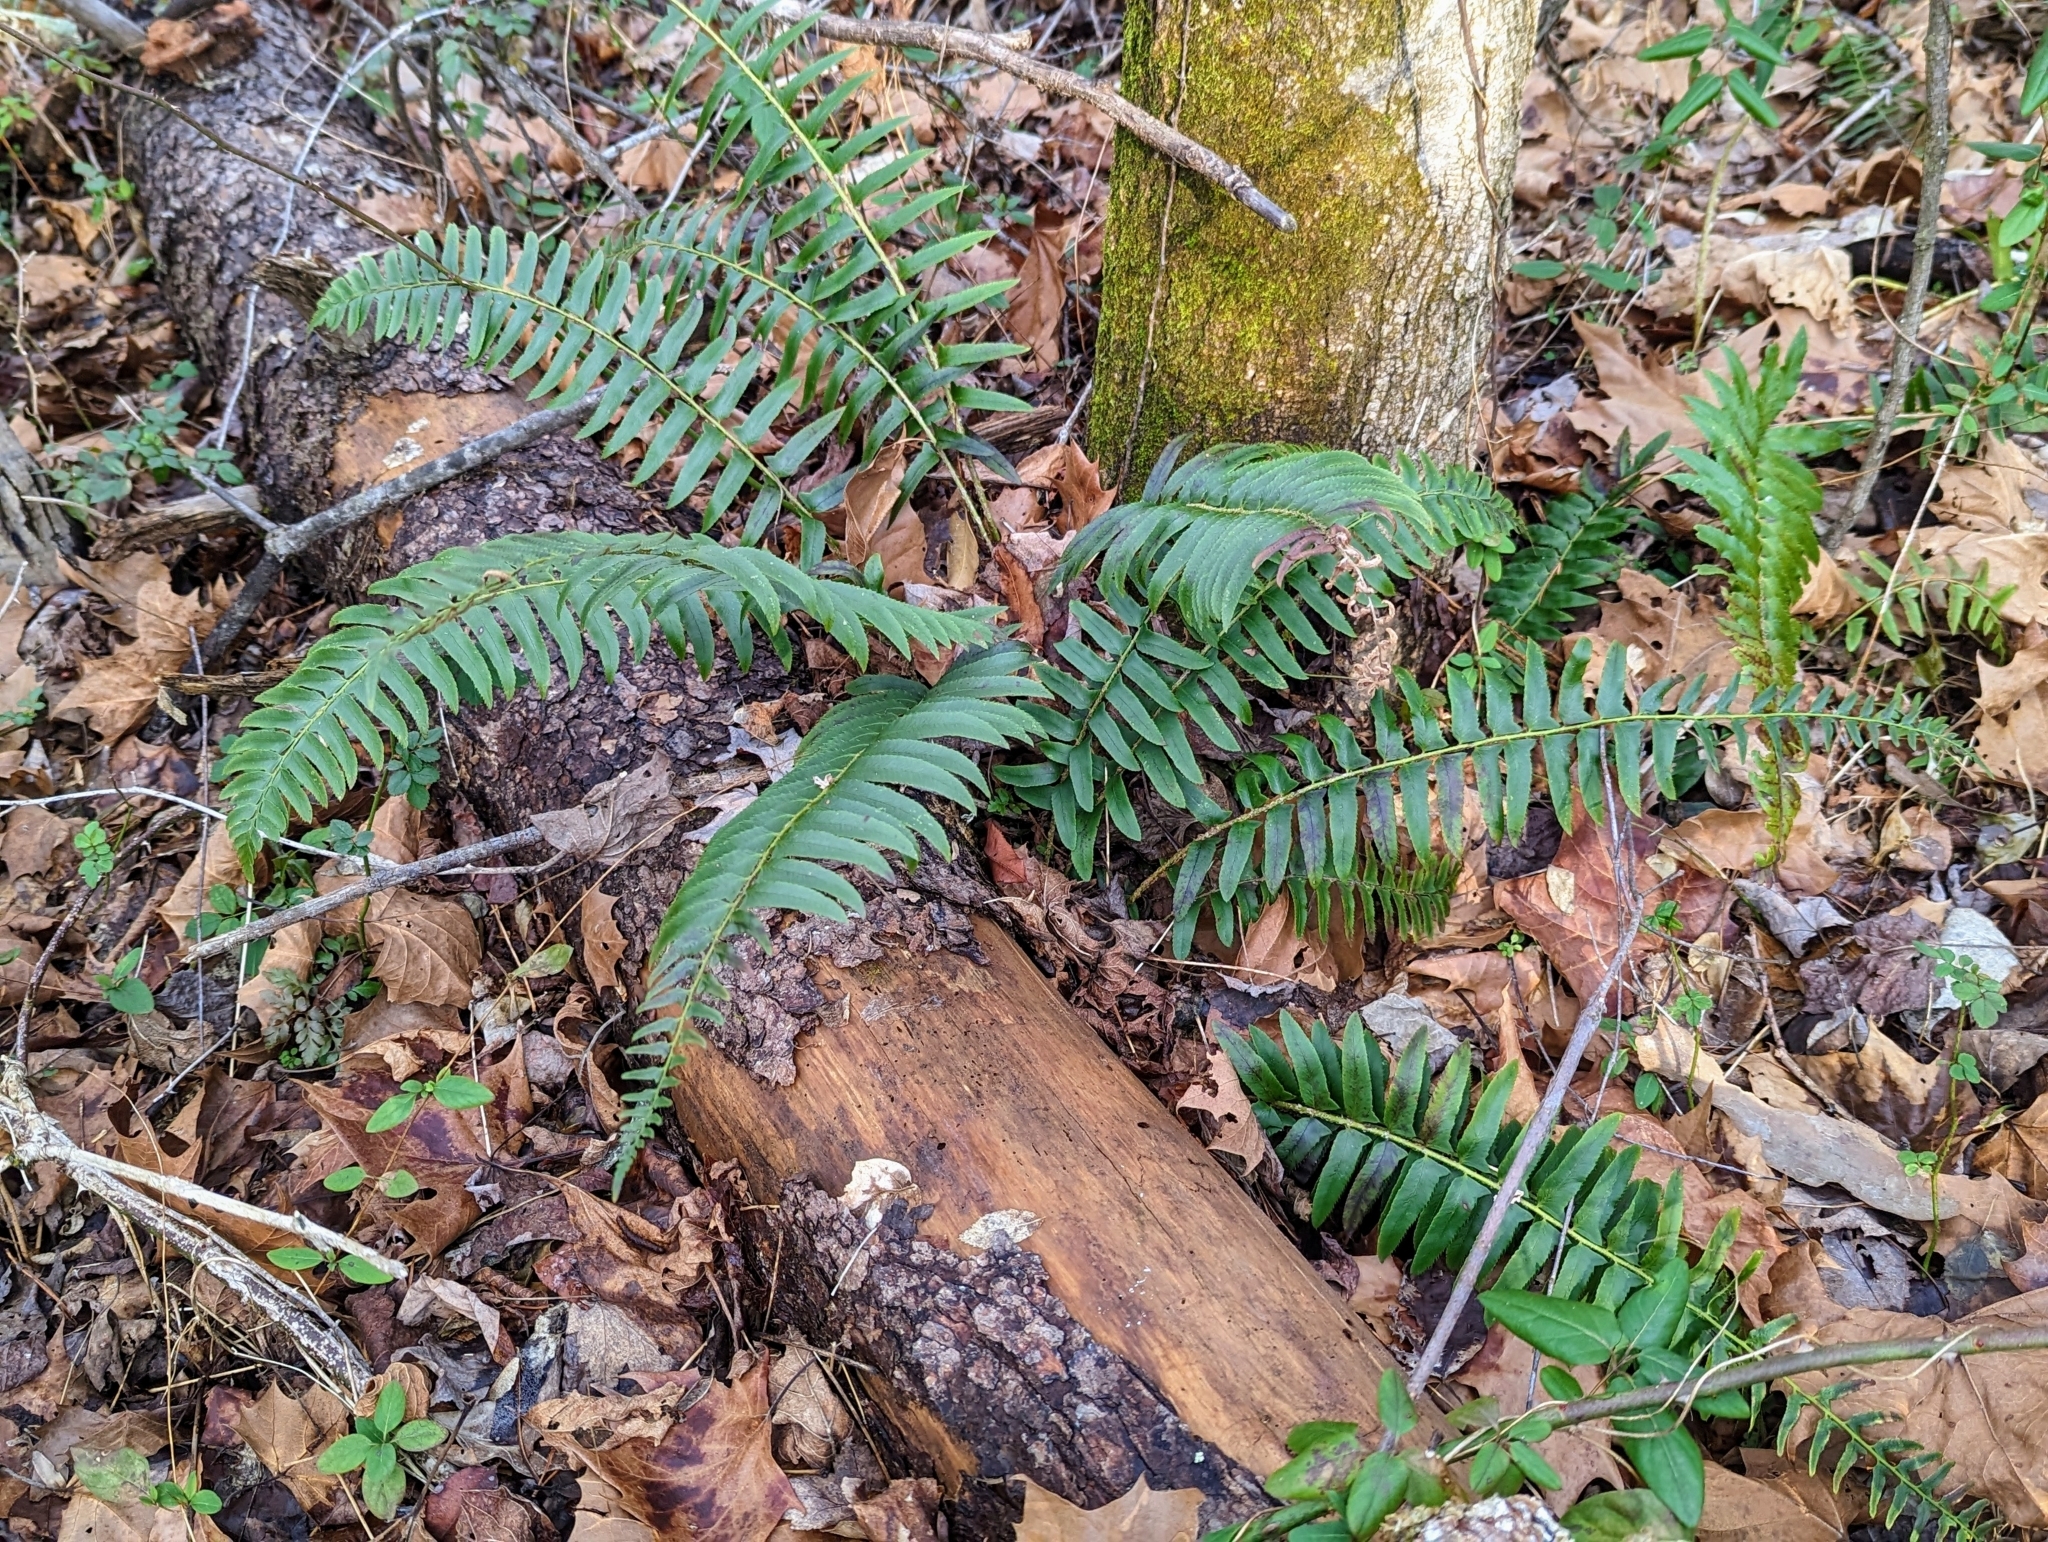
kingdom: Plantae
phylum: Tracheophyta
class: Polypodiopsida
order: Polypodiales
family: Dryopteridaceae
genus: Polystichum
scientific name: Polystichum acrostichoides
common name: Christmas fern
